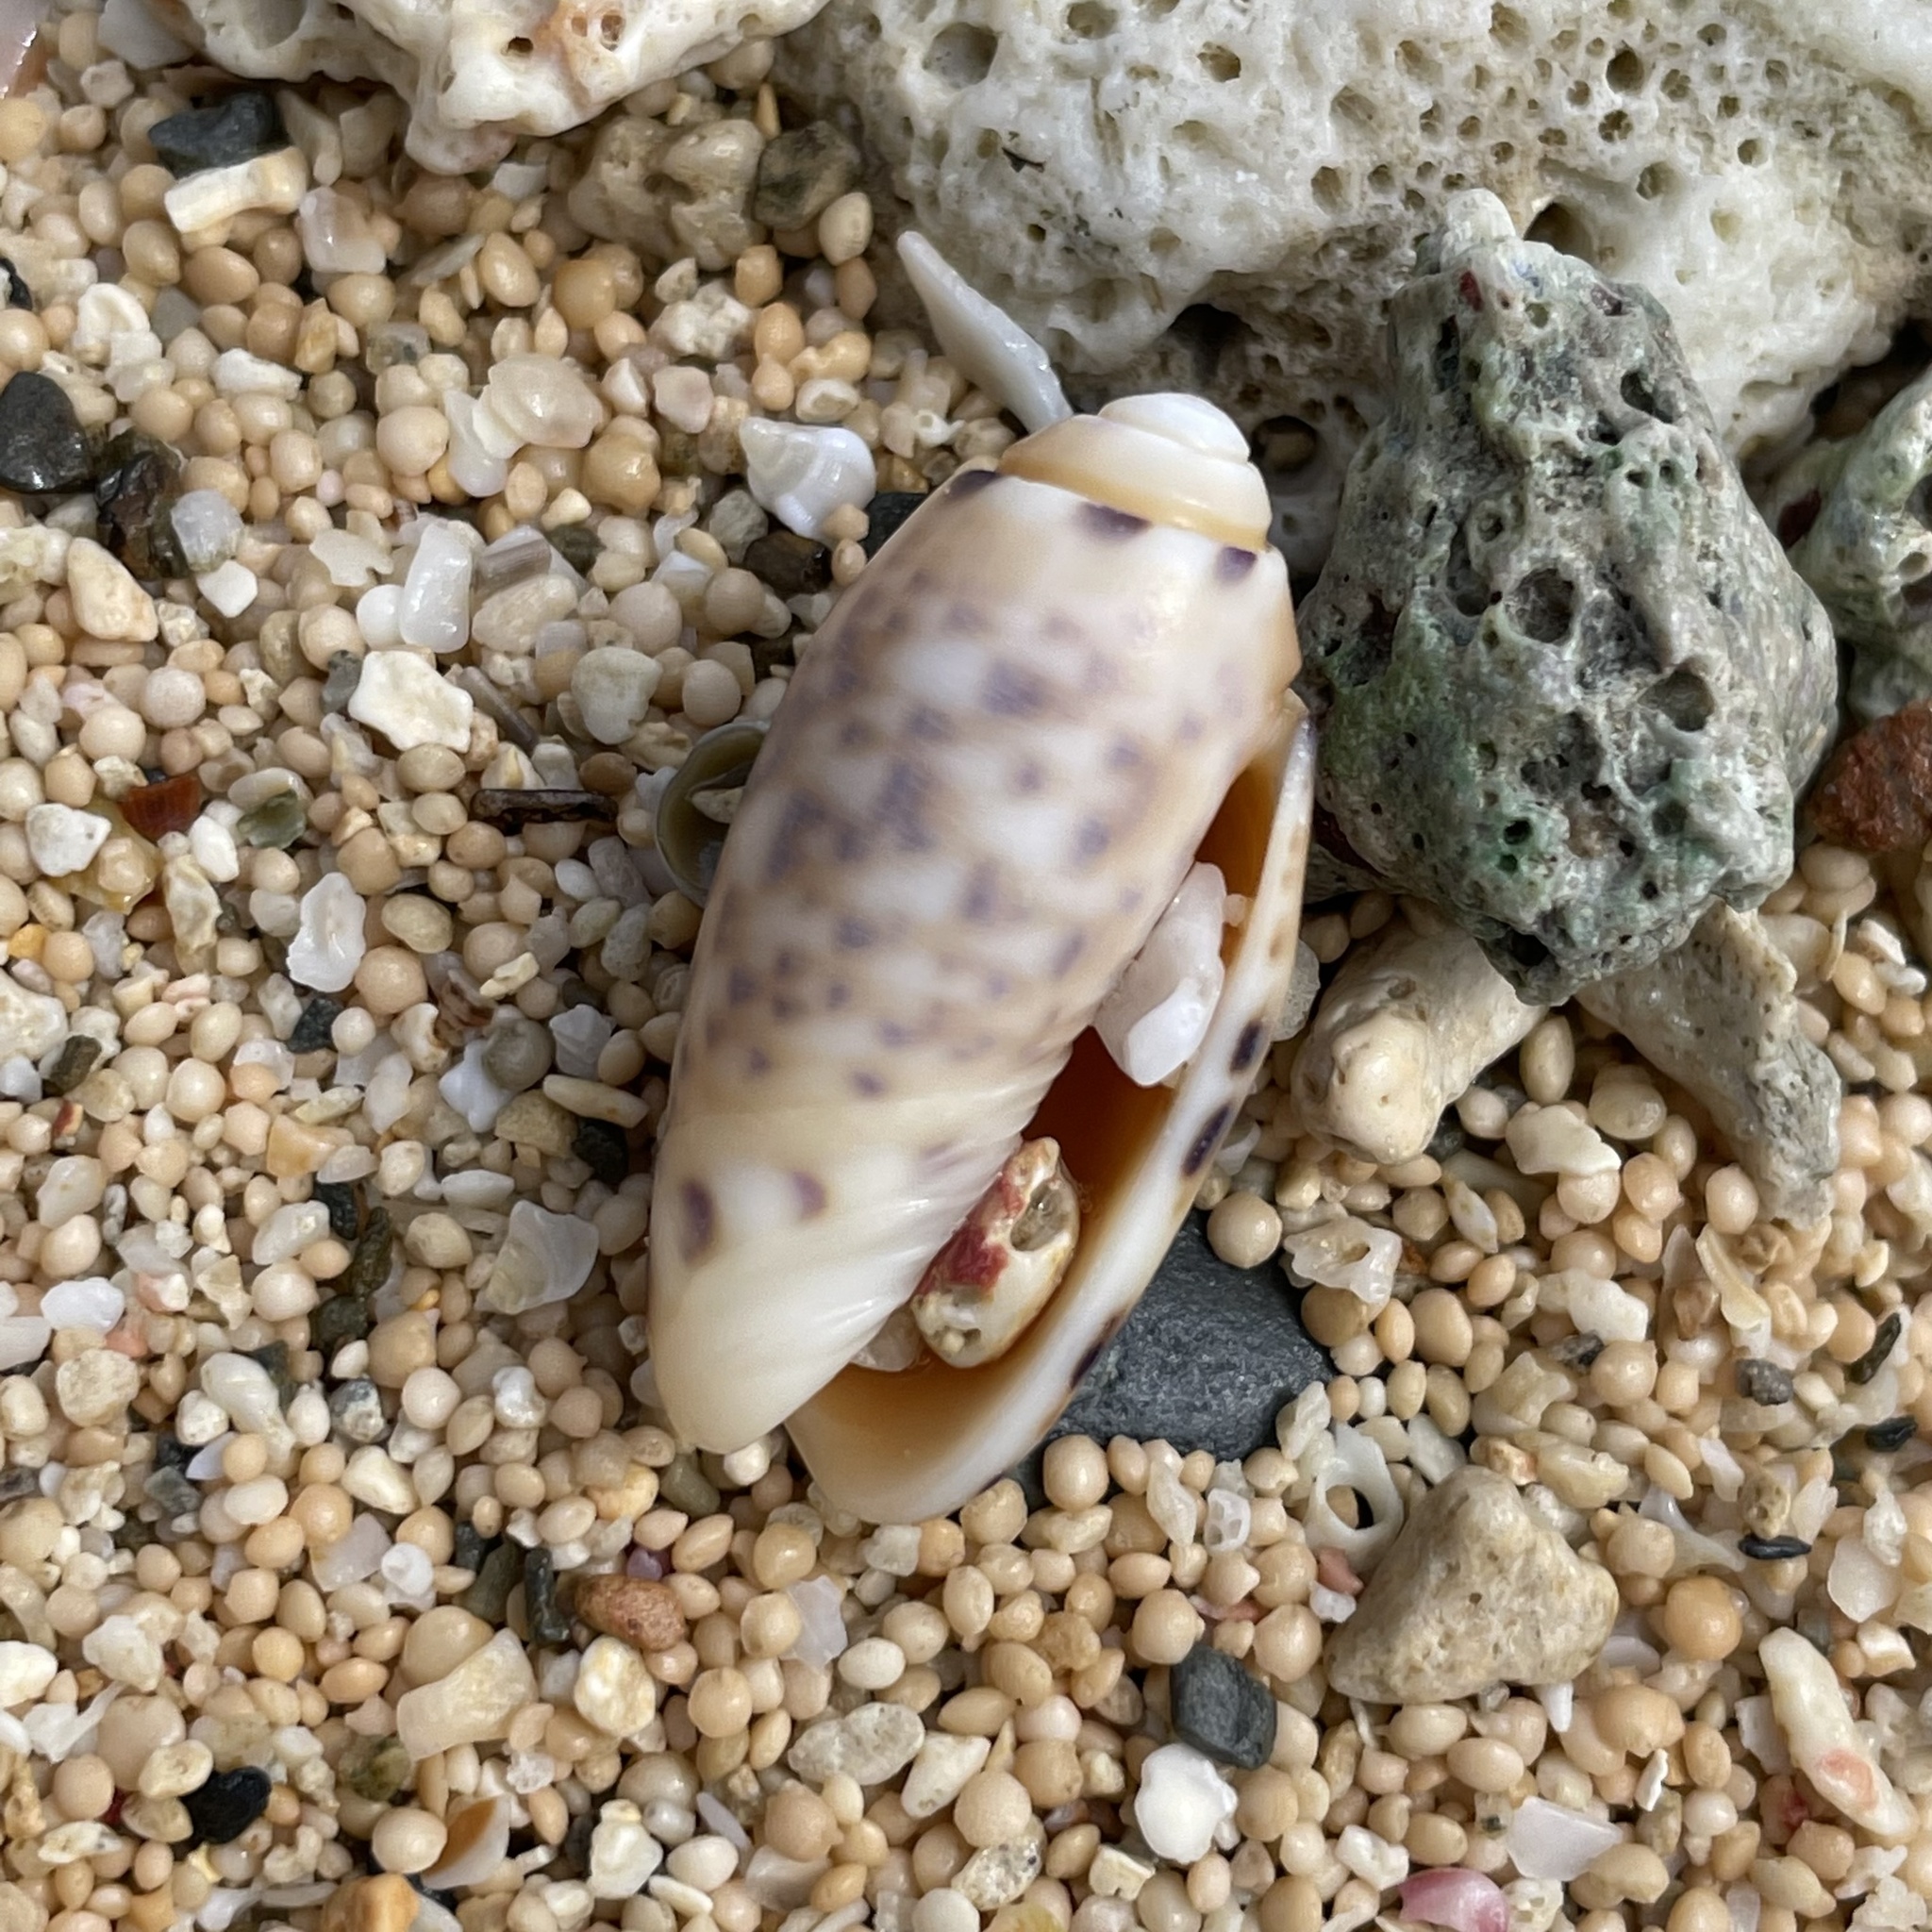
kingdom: Animalia
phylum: Mollusca
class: Gastropoda
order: Neogastropoda
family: Olividae
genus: Oliva
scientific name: Oliva amethystina
